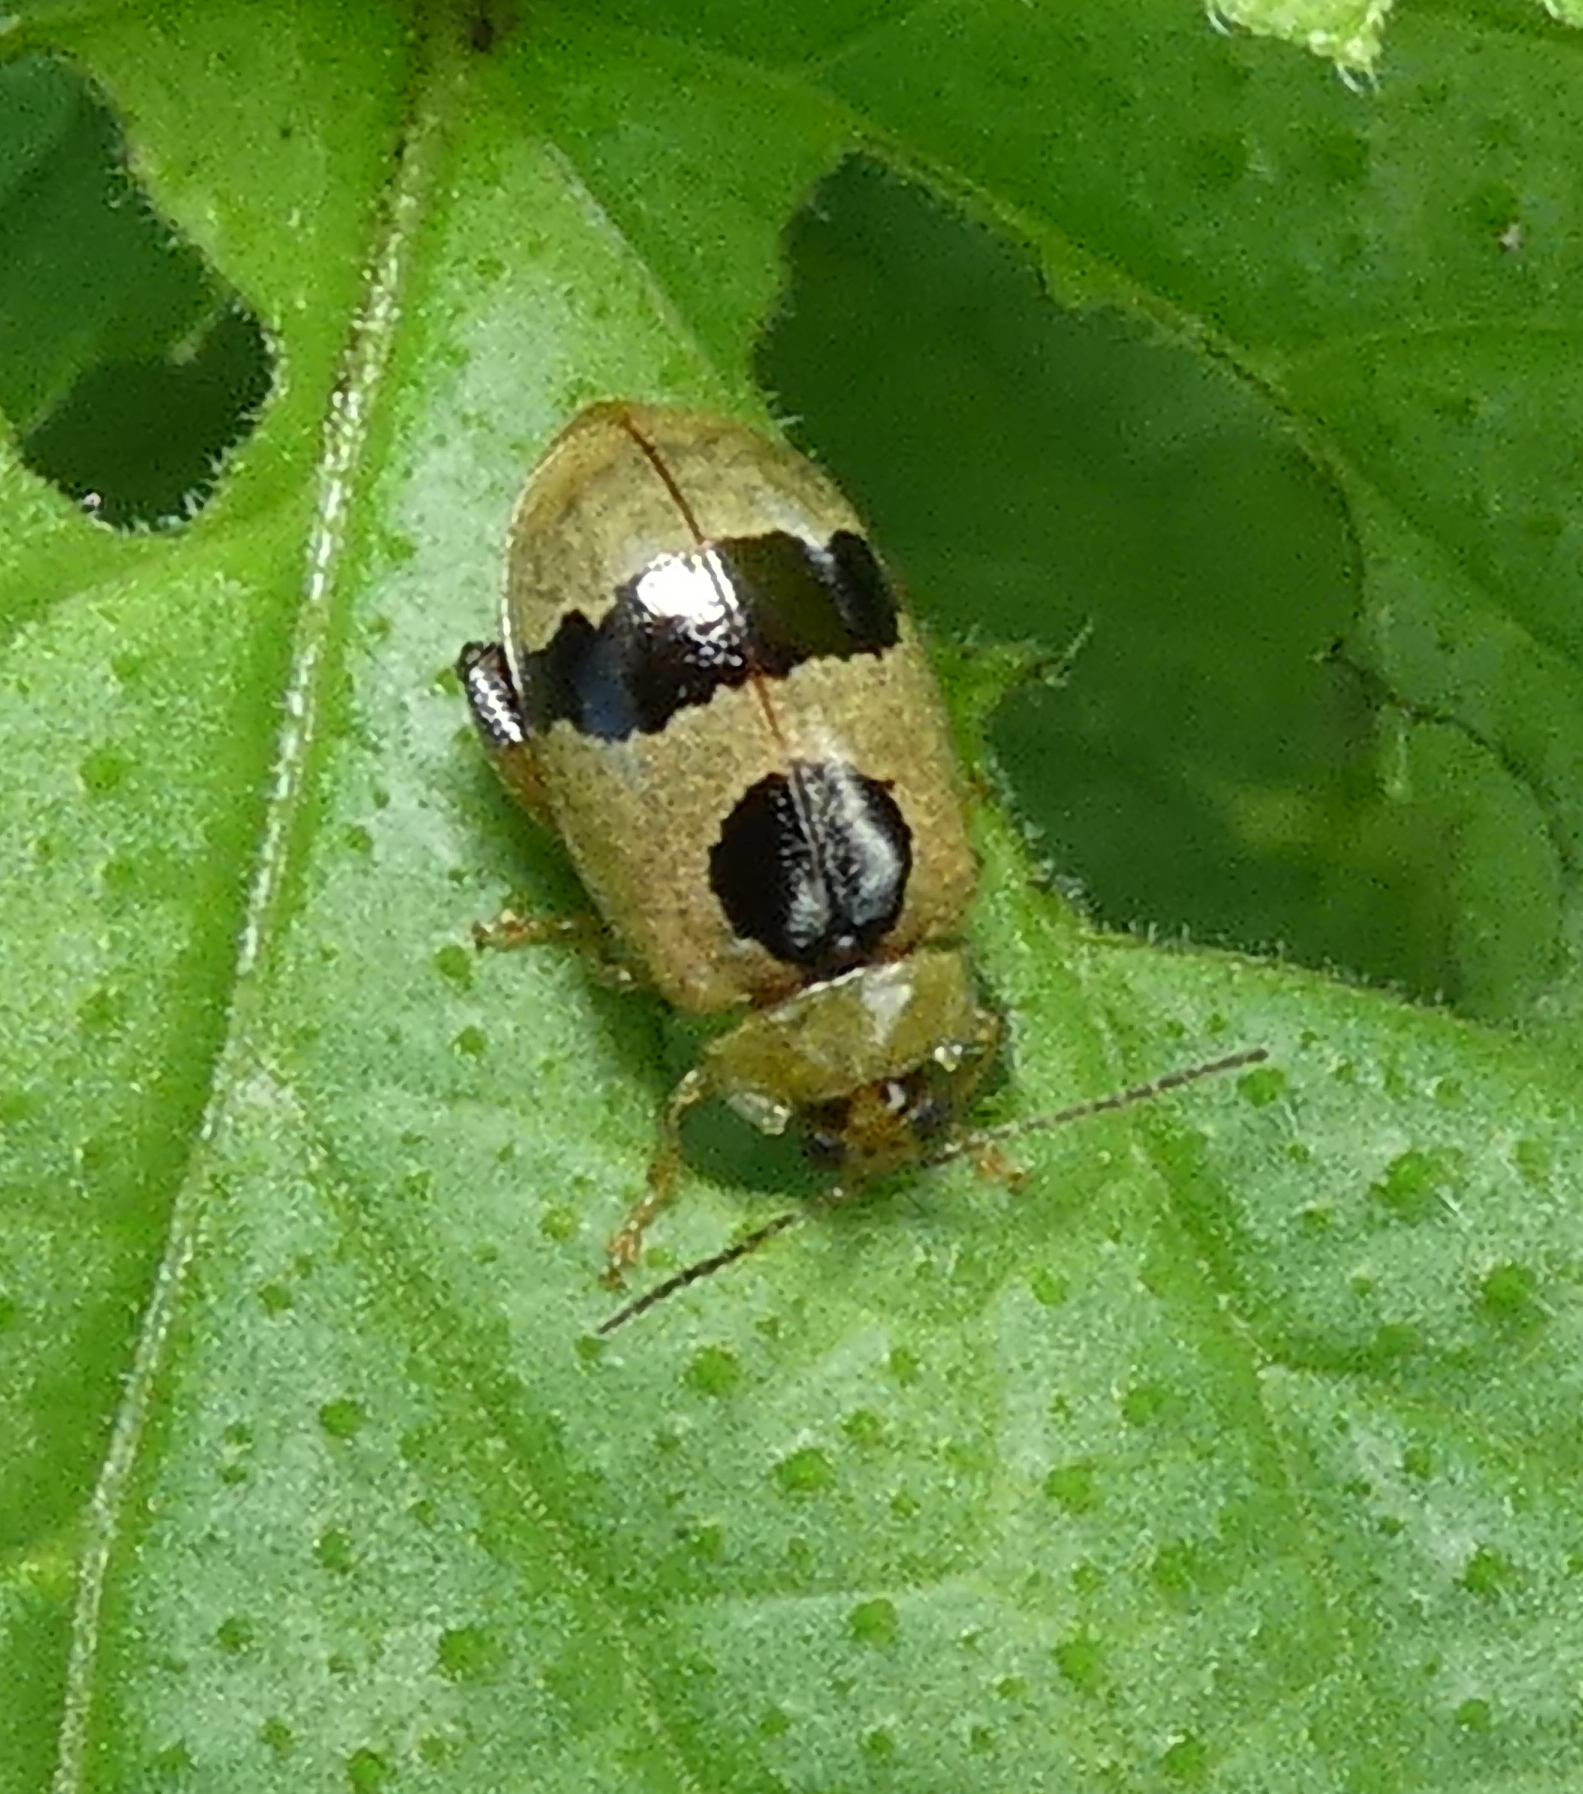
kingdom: Animalia
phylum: Arthropoda
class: Insecta
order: Coleoptera
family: Chrysomelidae
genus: Alagoasa
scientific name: Alagoasa
